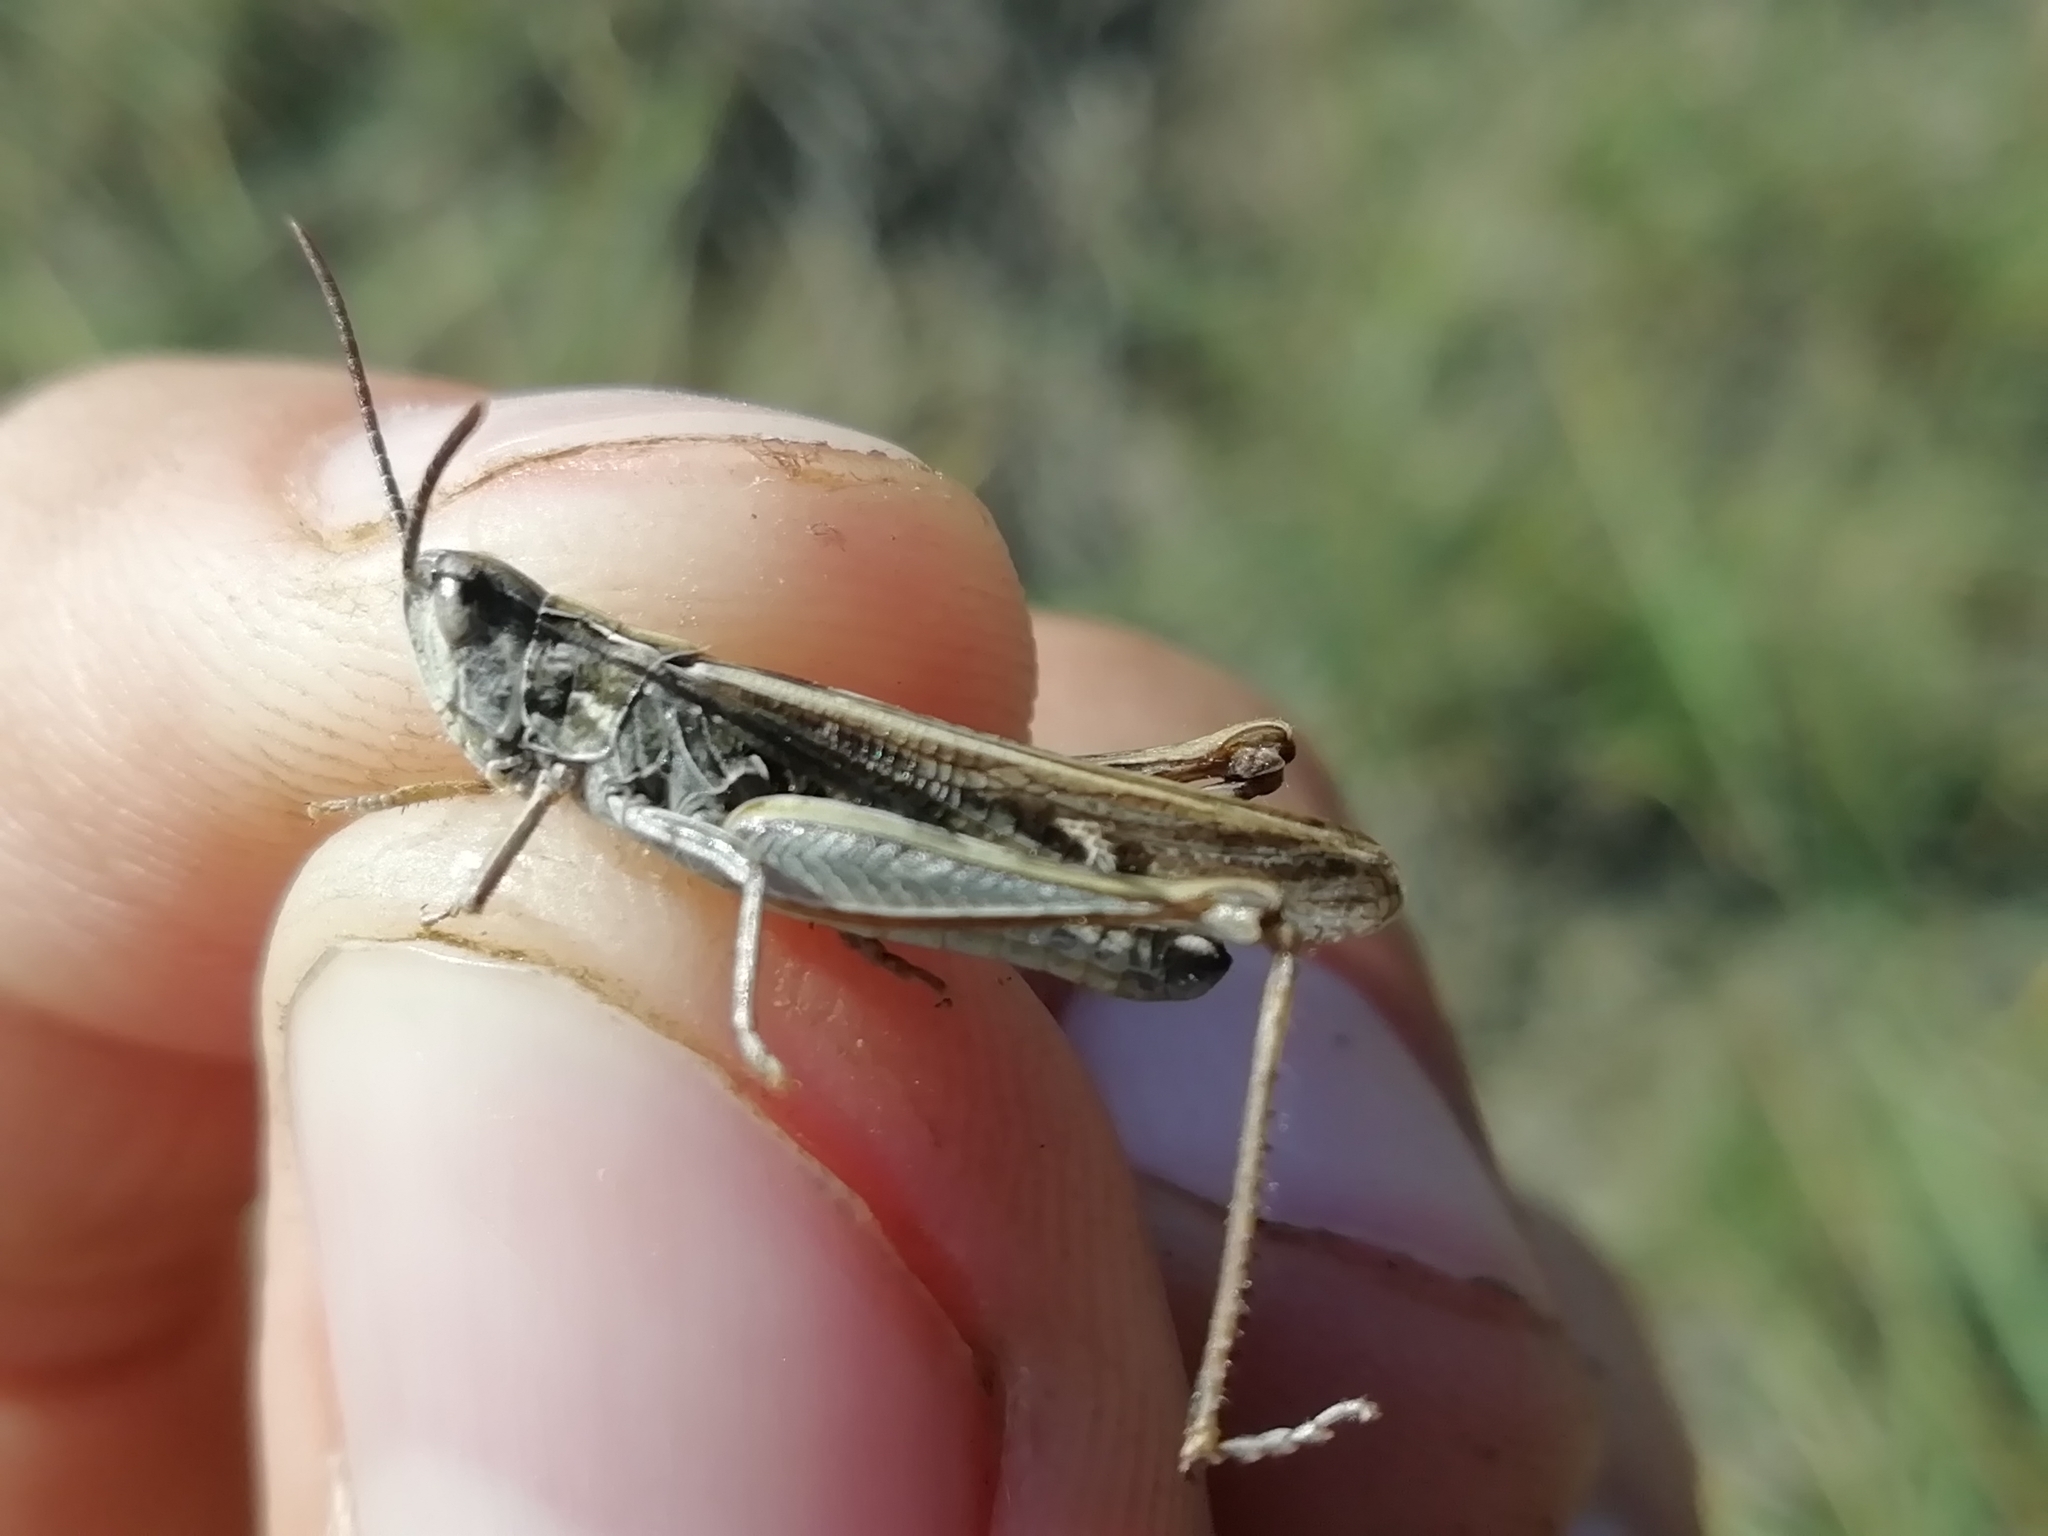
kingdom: Animalia
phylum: Arthropoda
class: Insecta
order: Orthoptera
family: Acrididae
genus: Chorthippus
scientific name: Chorthippus mollis
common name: Lesser field grasshopper
